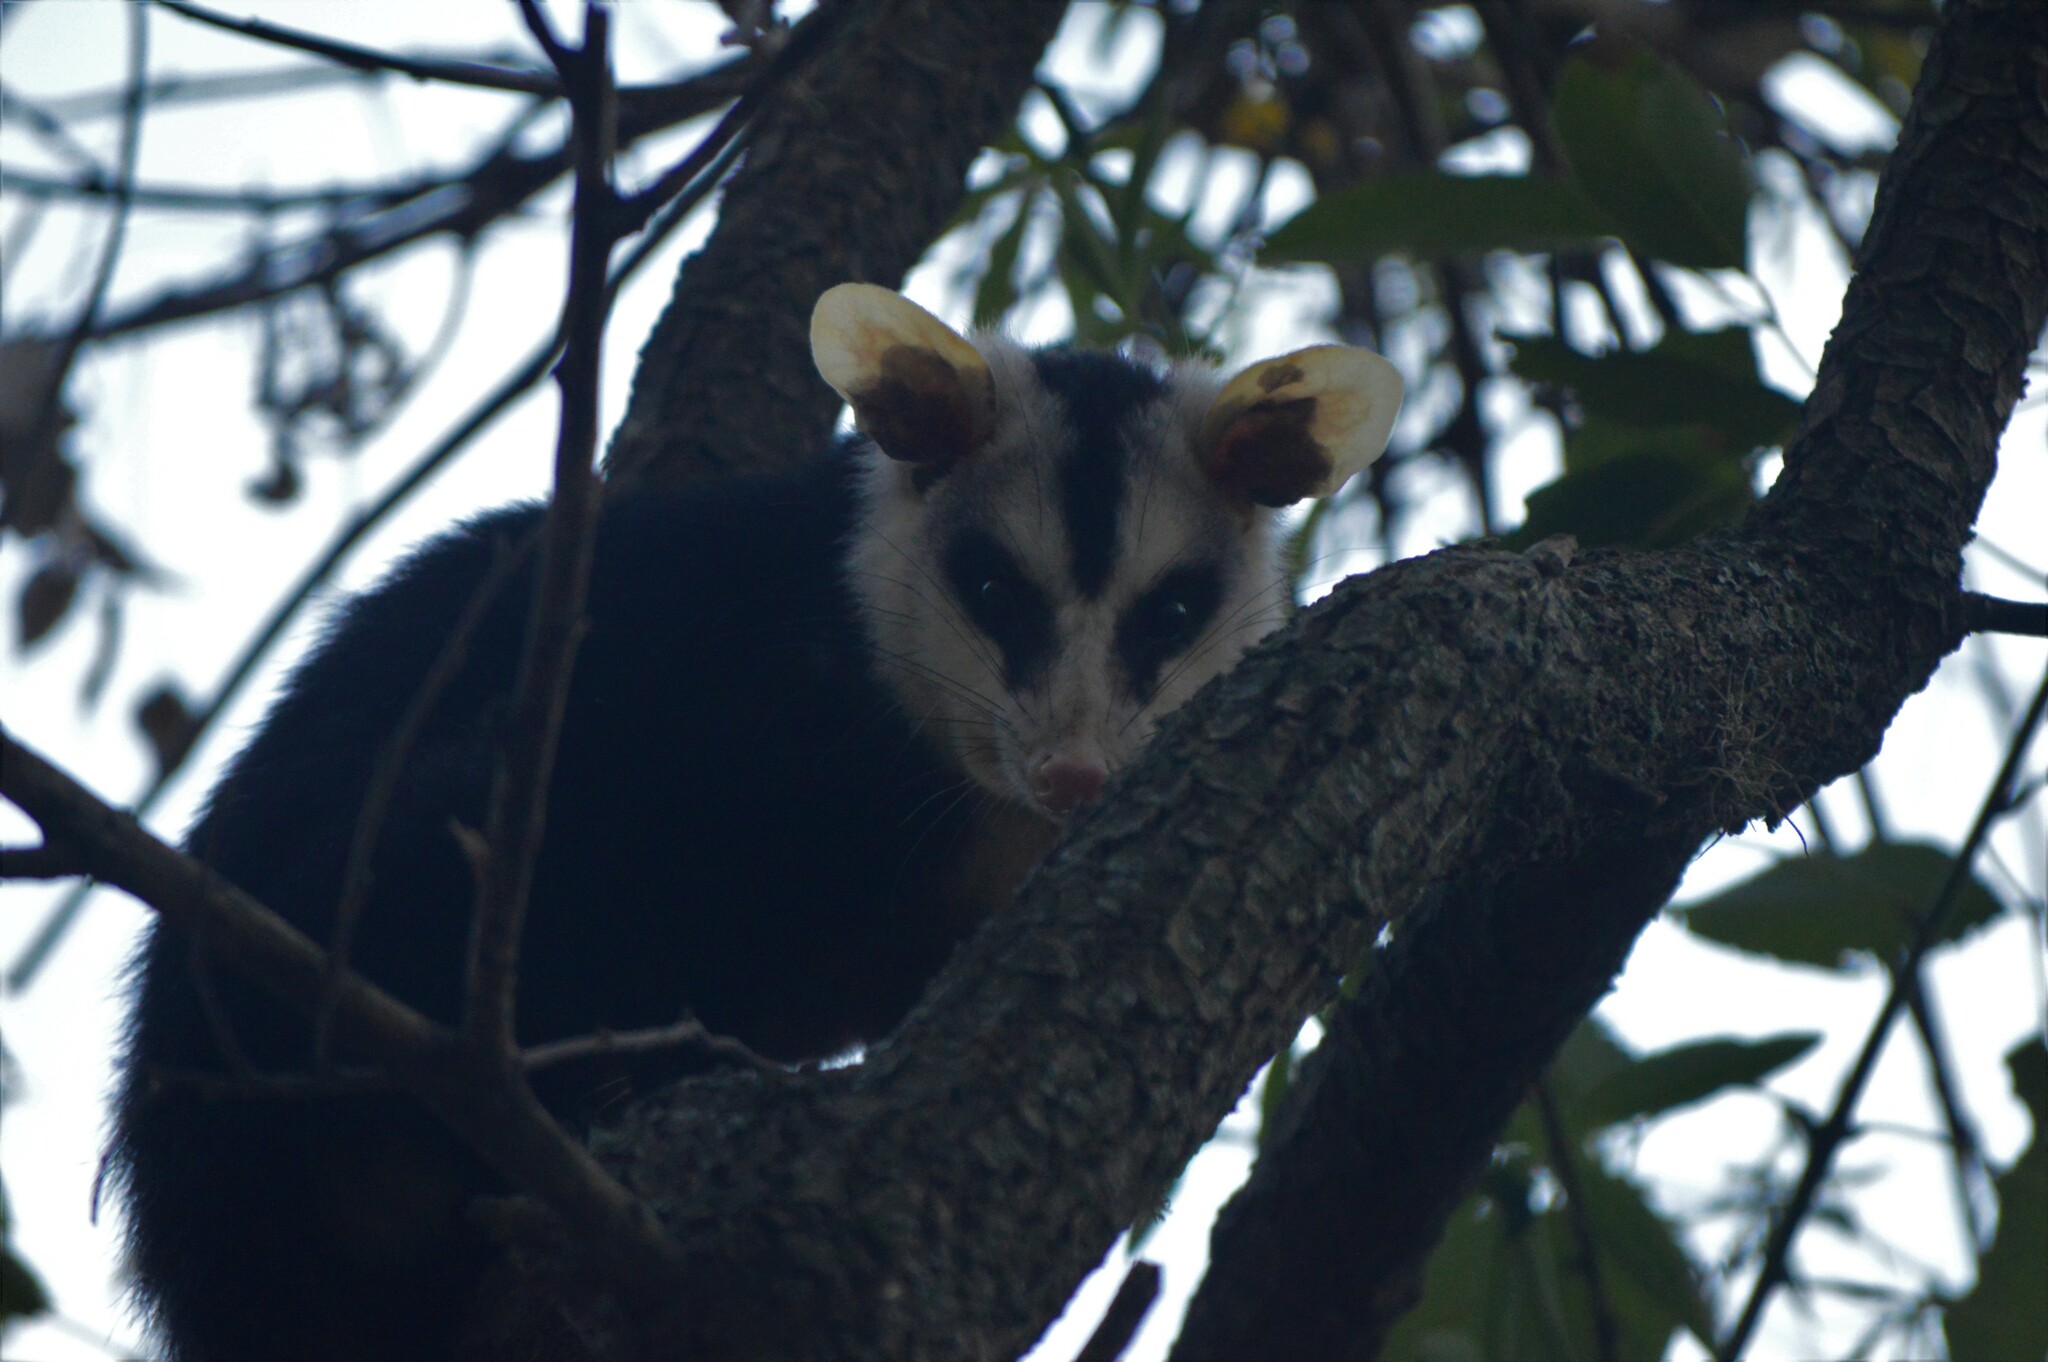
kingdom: Animalia
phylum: Chordata
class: Mammalia
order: Didelphimorphia
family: Didelphidae
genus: Didelphis
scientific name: Didelphis albiventris
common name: White-eared opossum
